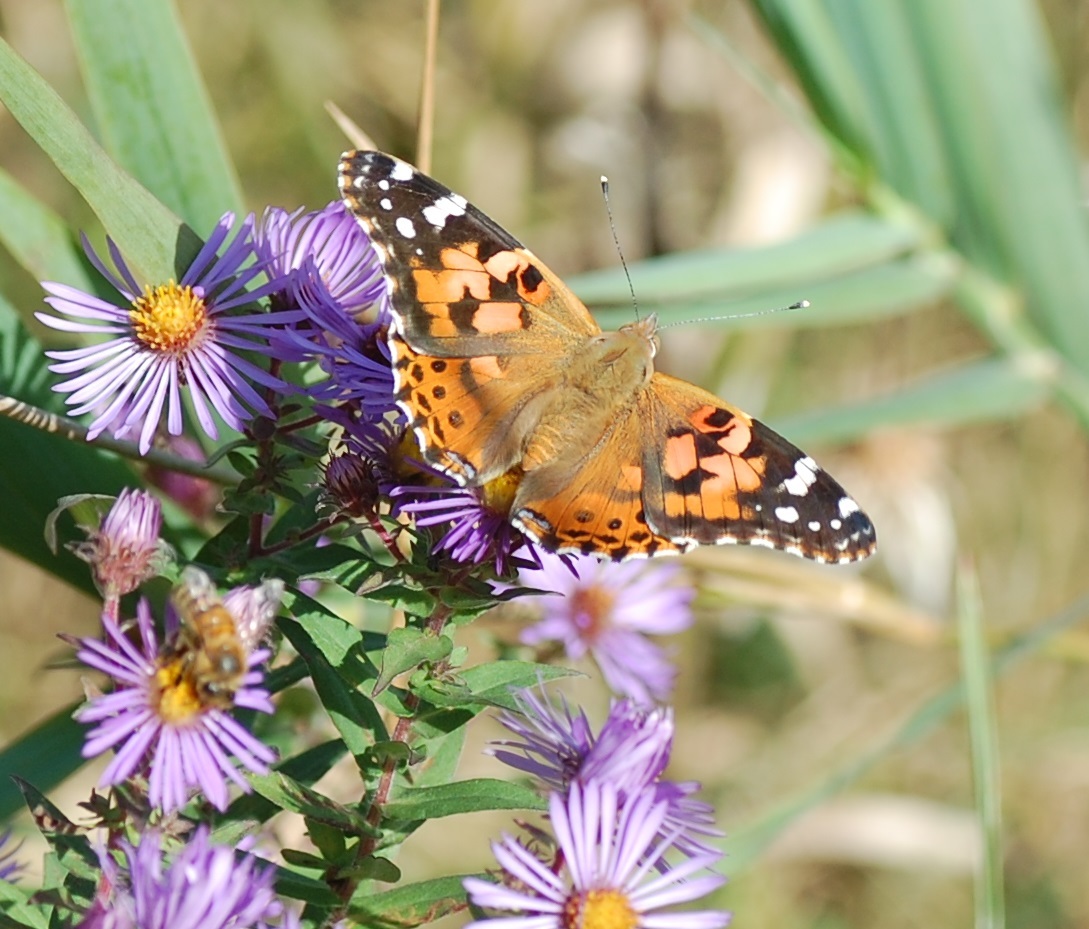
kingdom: Animalia
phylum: Arthropoda
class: Insecta
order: Lepidoptera
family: Nymphalidae
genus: Vanessa
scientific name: Vanessa cardui
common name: Painted lady
